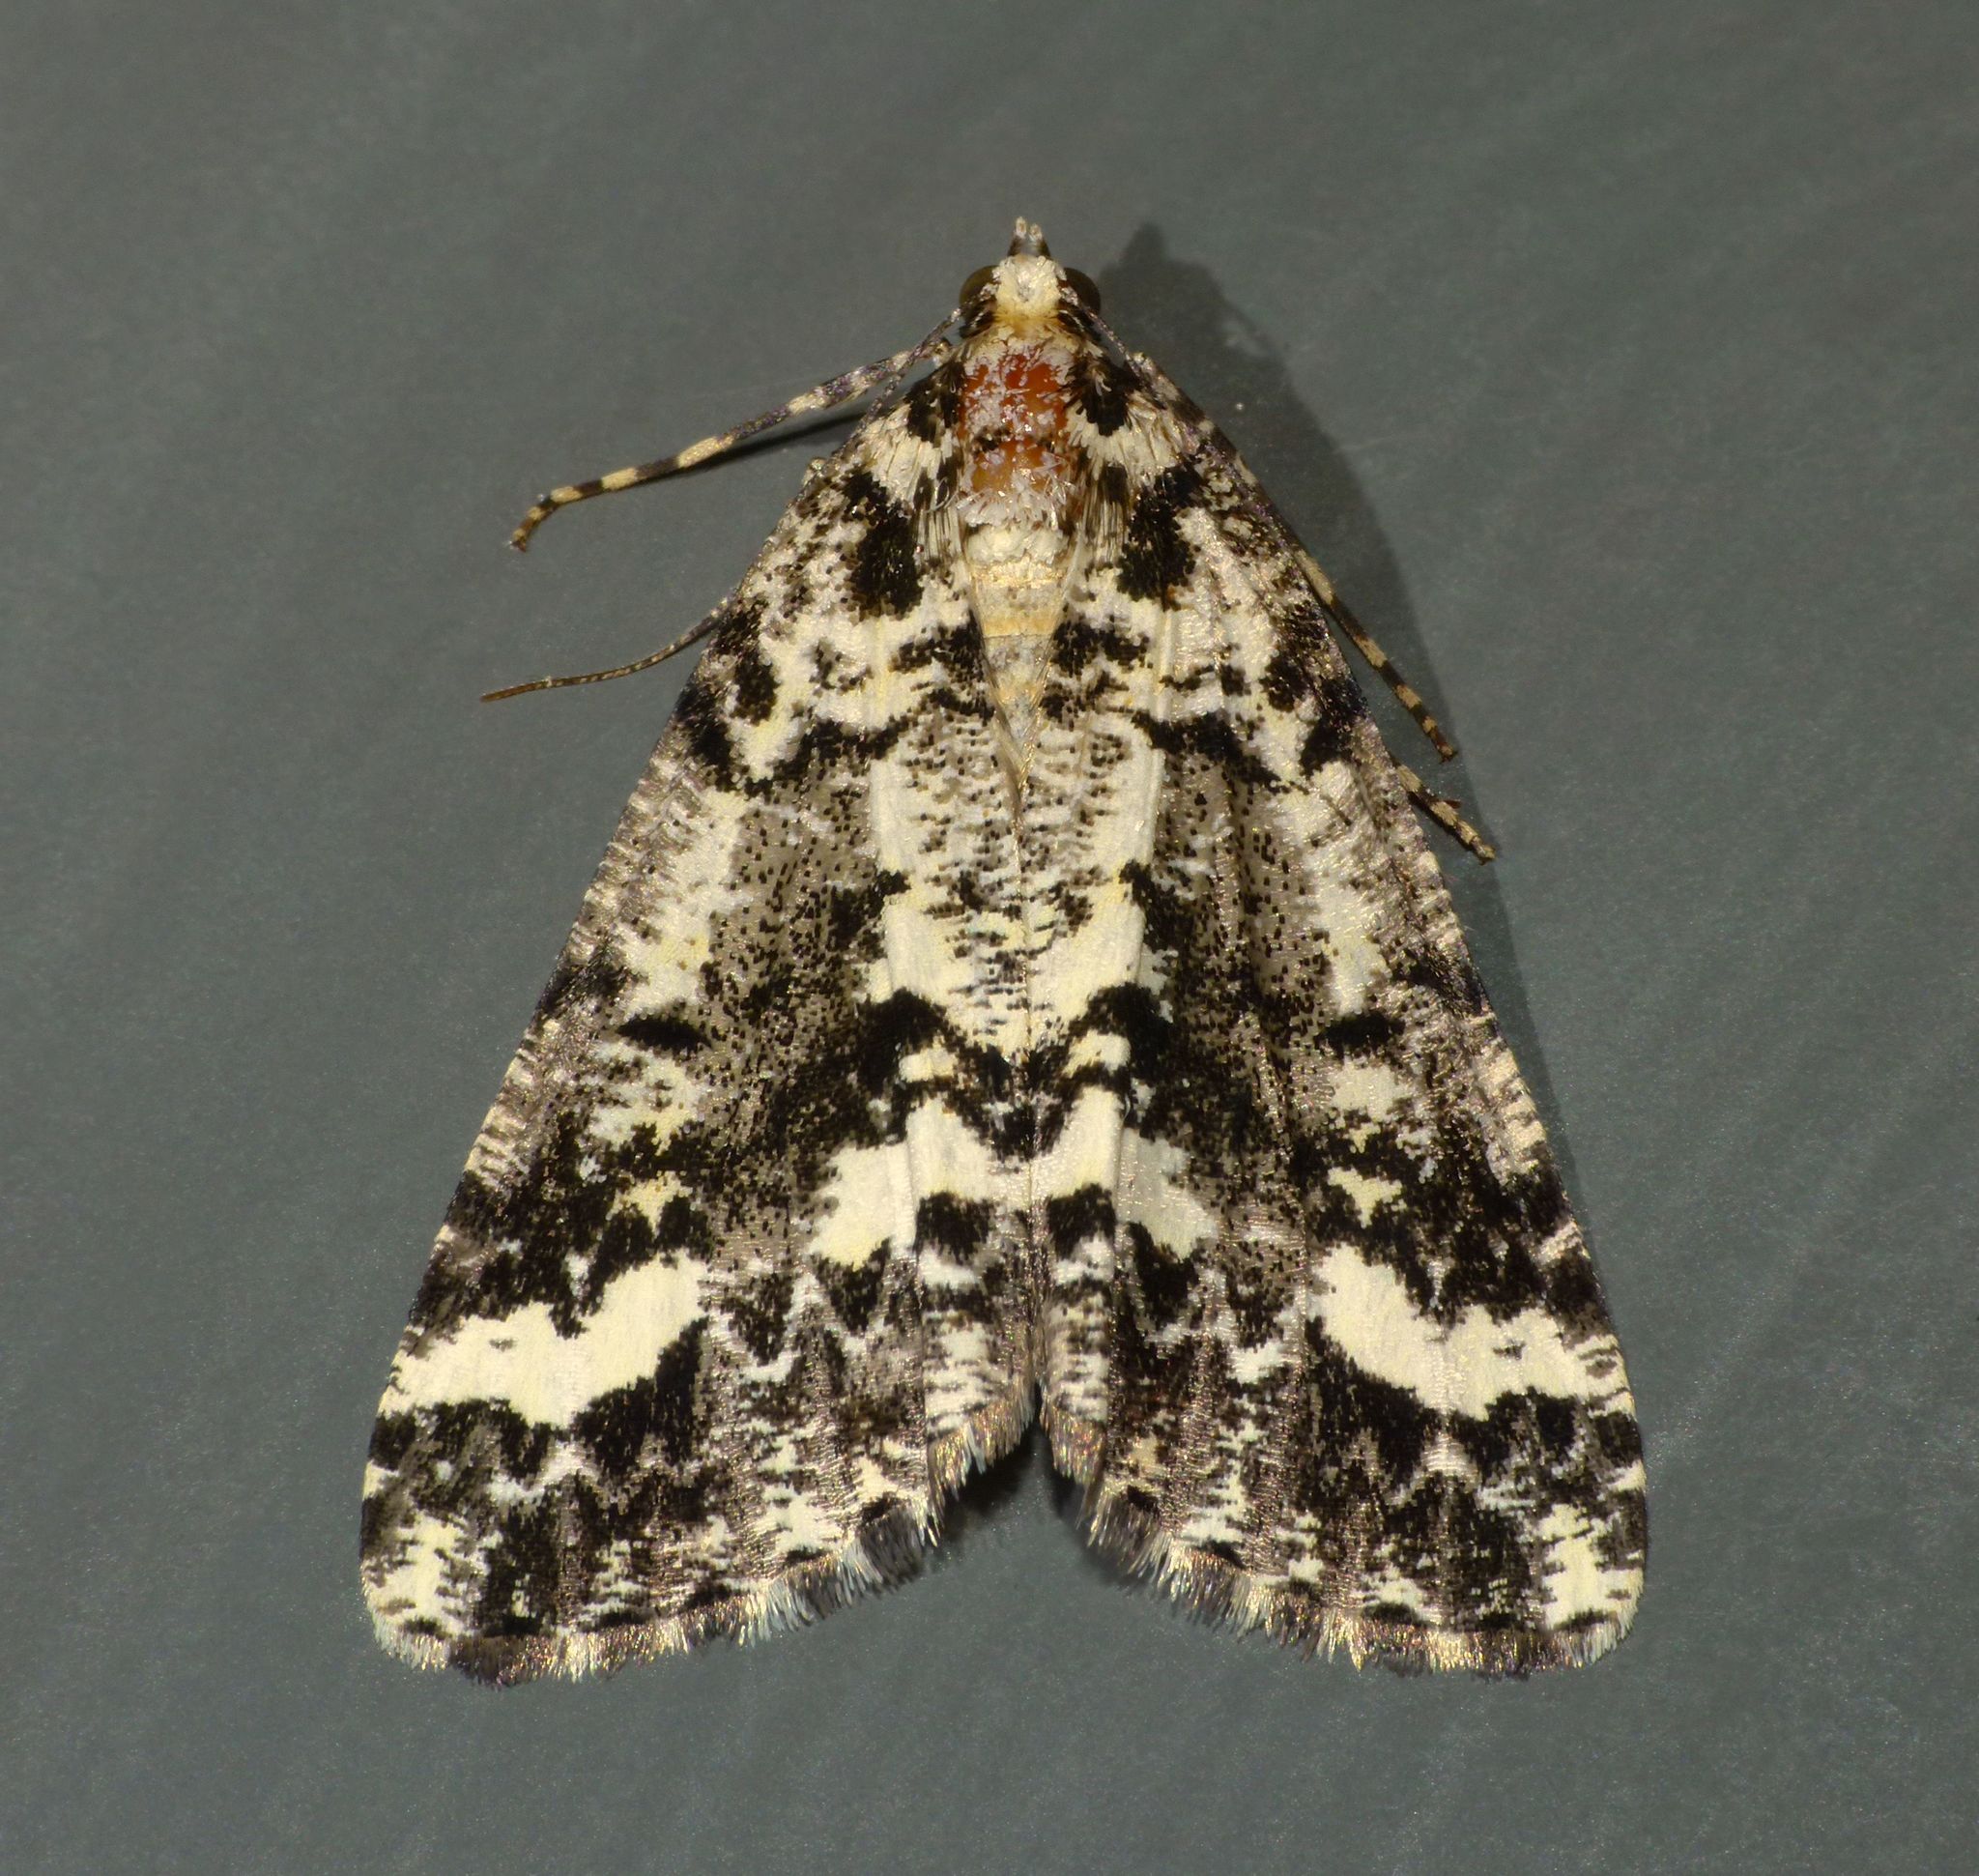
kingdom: Animalia
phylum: Arthropoda
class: Insecta
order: Lepidoptera
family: Geometridae
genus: Pseudocoremia
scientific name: Pseudocoremia leucelaea
